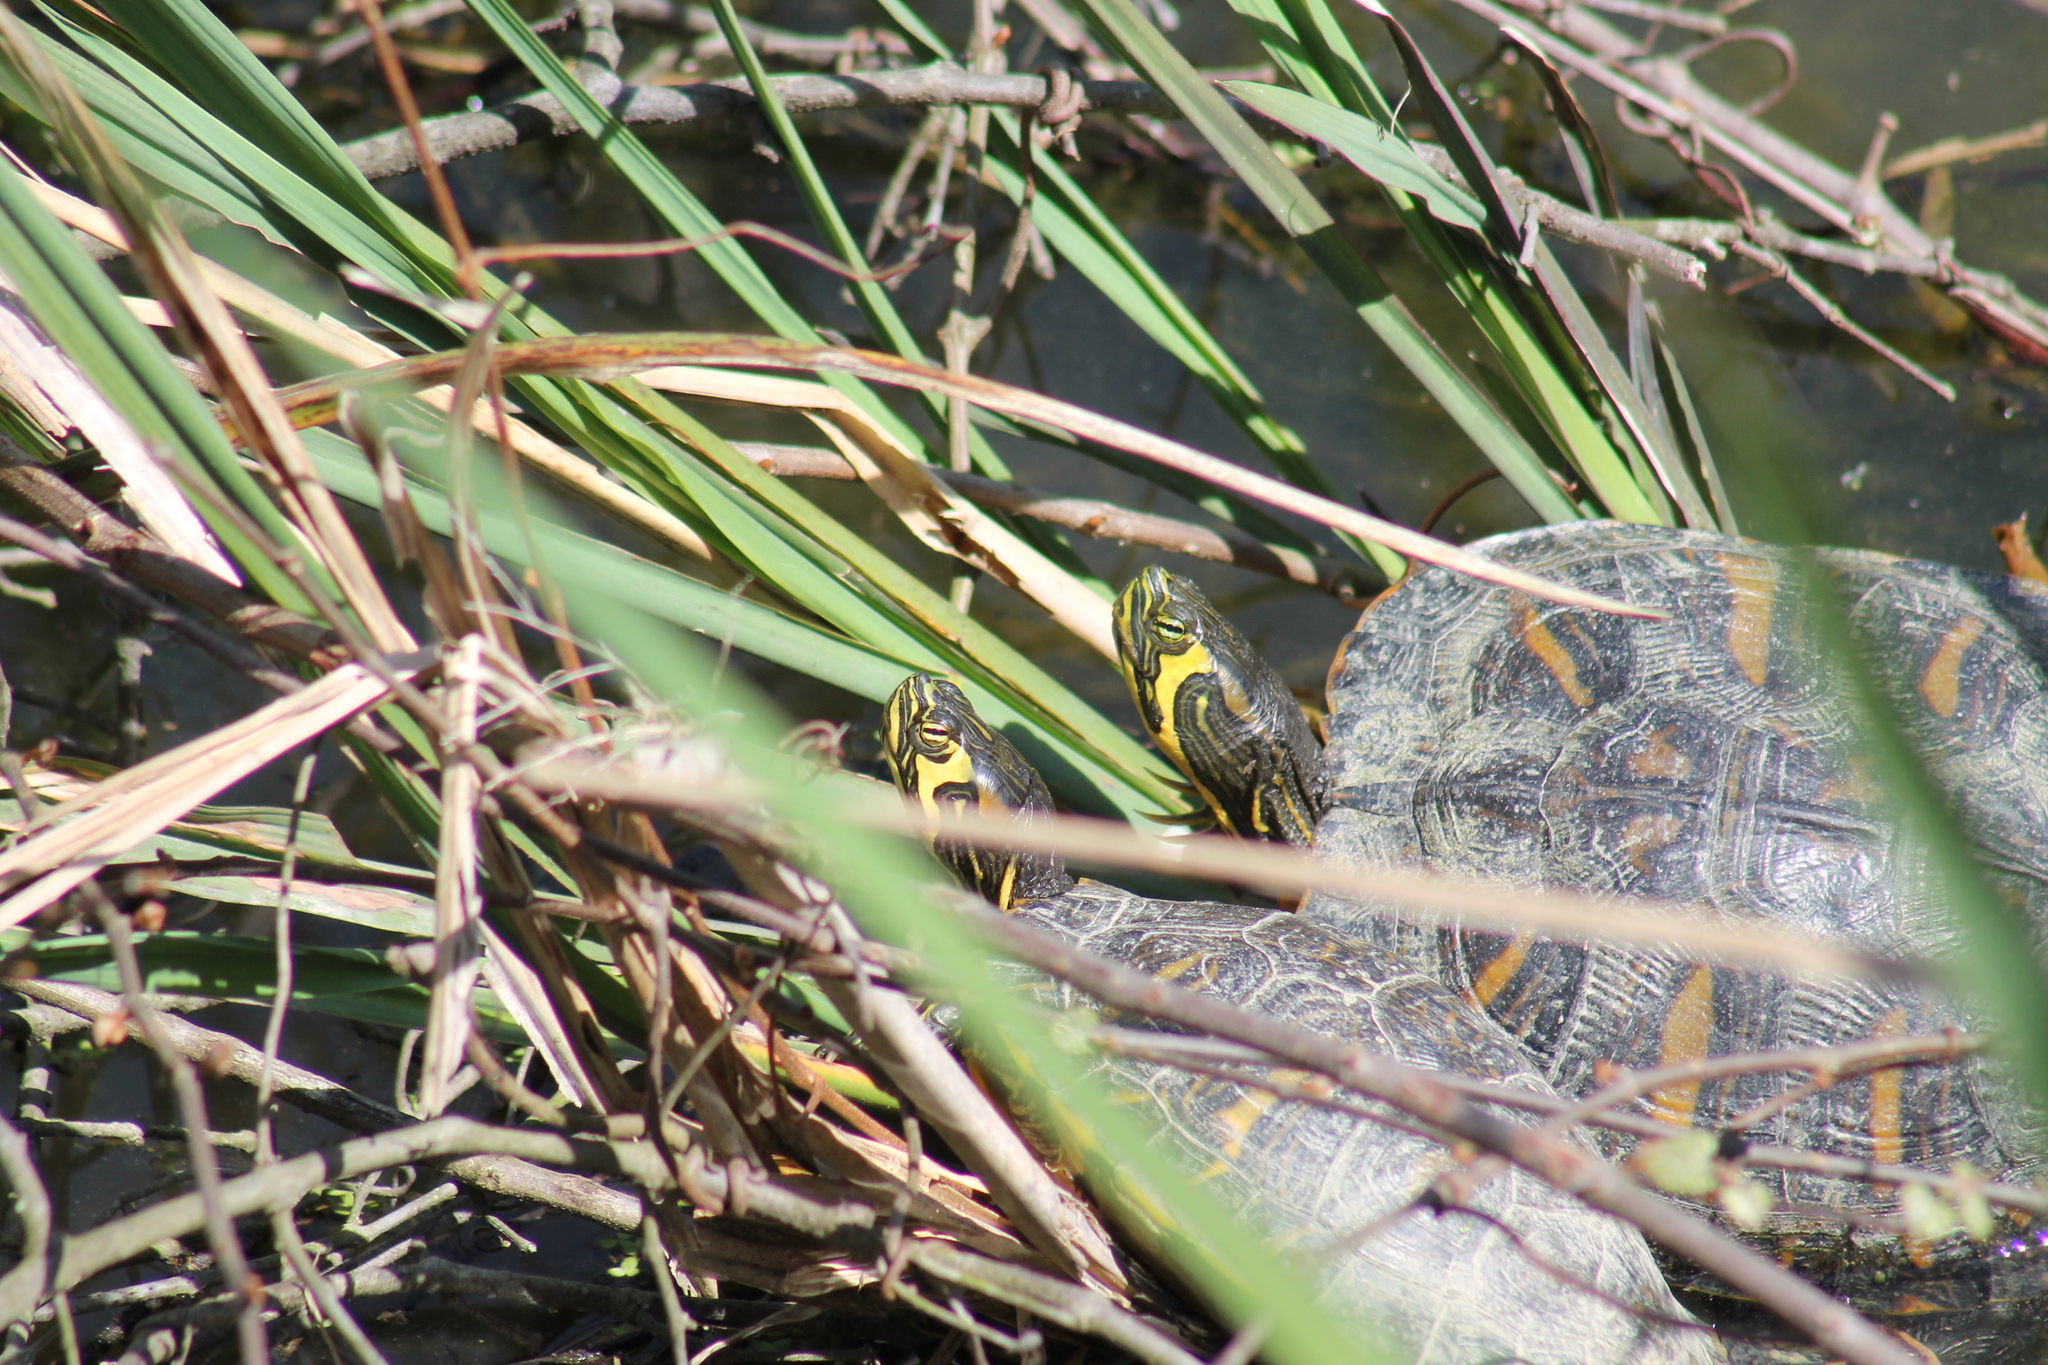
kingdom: Animalia
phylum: Chordata
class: Testudines
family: Emydidae
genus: Trachemys
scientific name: Trachemys scripta
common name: Slider
